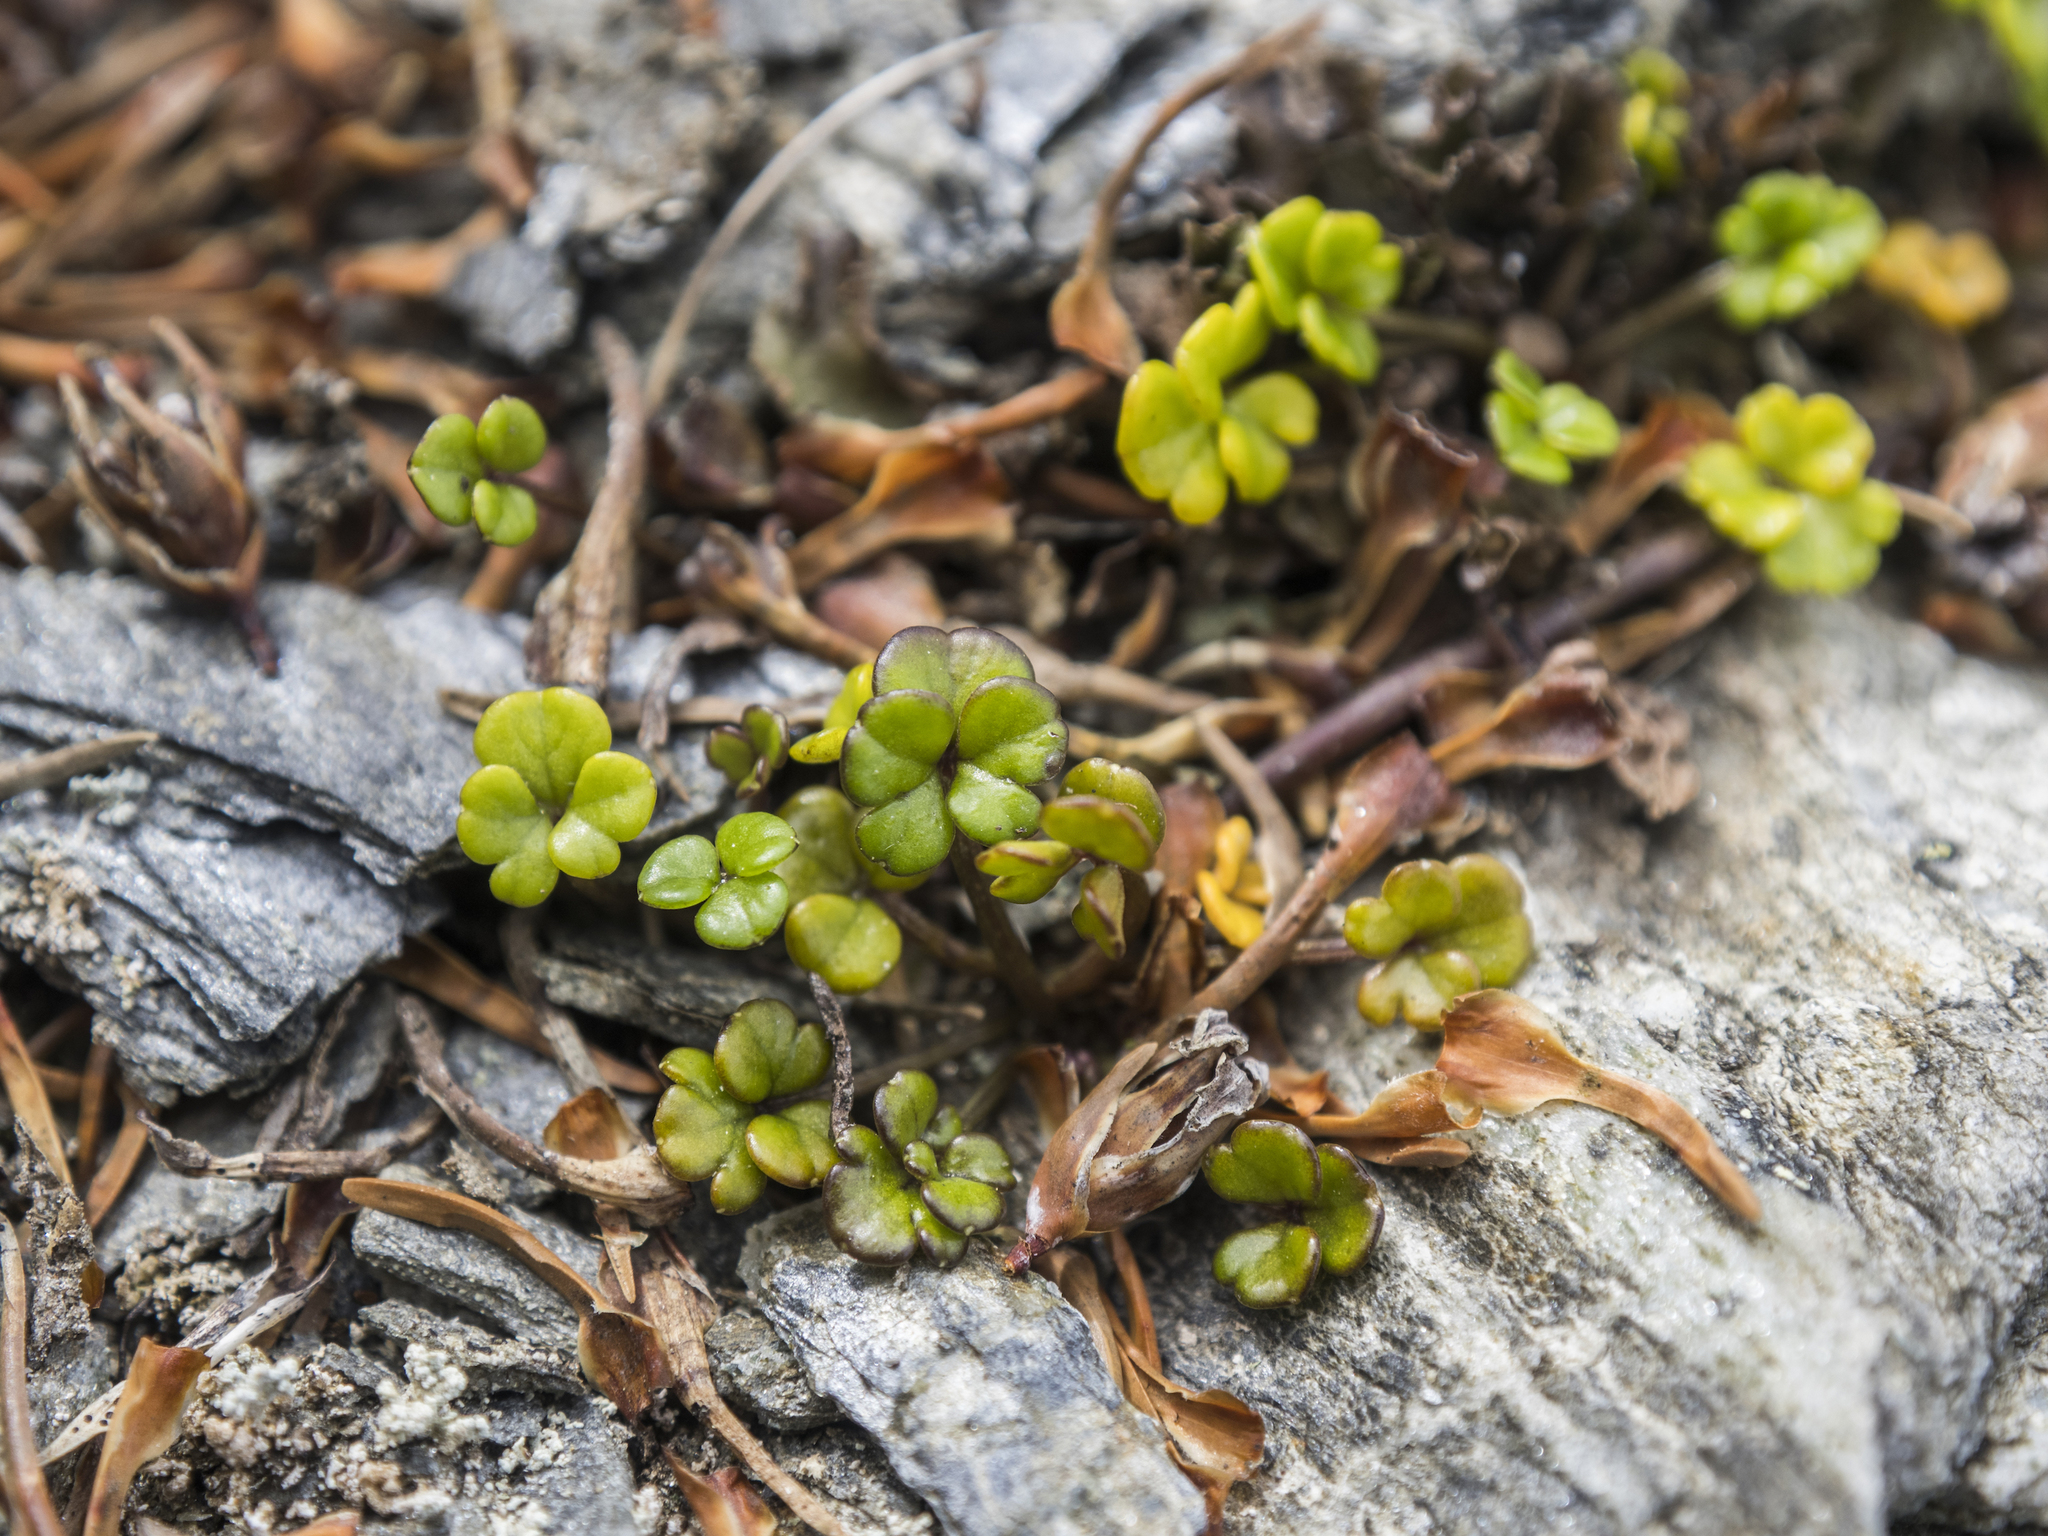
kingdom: Plantae
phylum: Tracheophyta
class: Magnoliopsida
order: Apiales
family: Apiaceae
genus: Azorella
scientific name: Azorella hydrocotyloides
